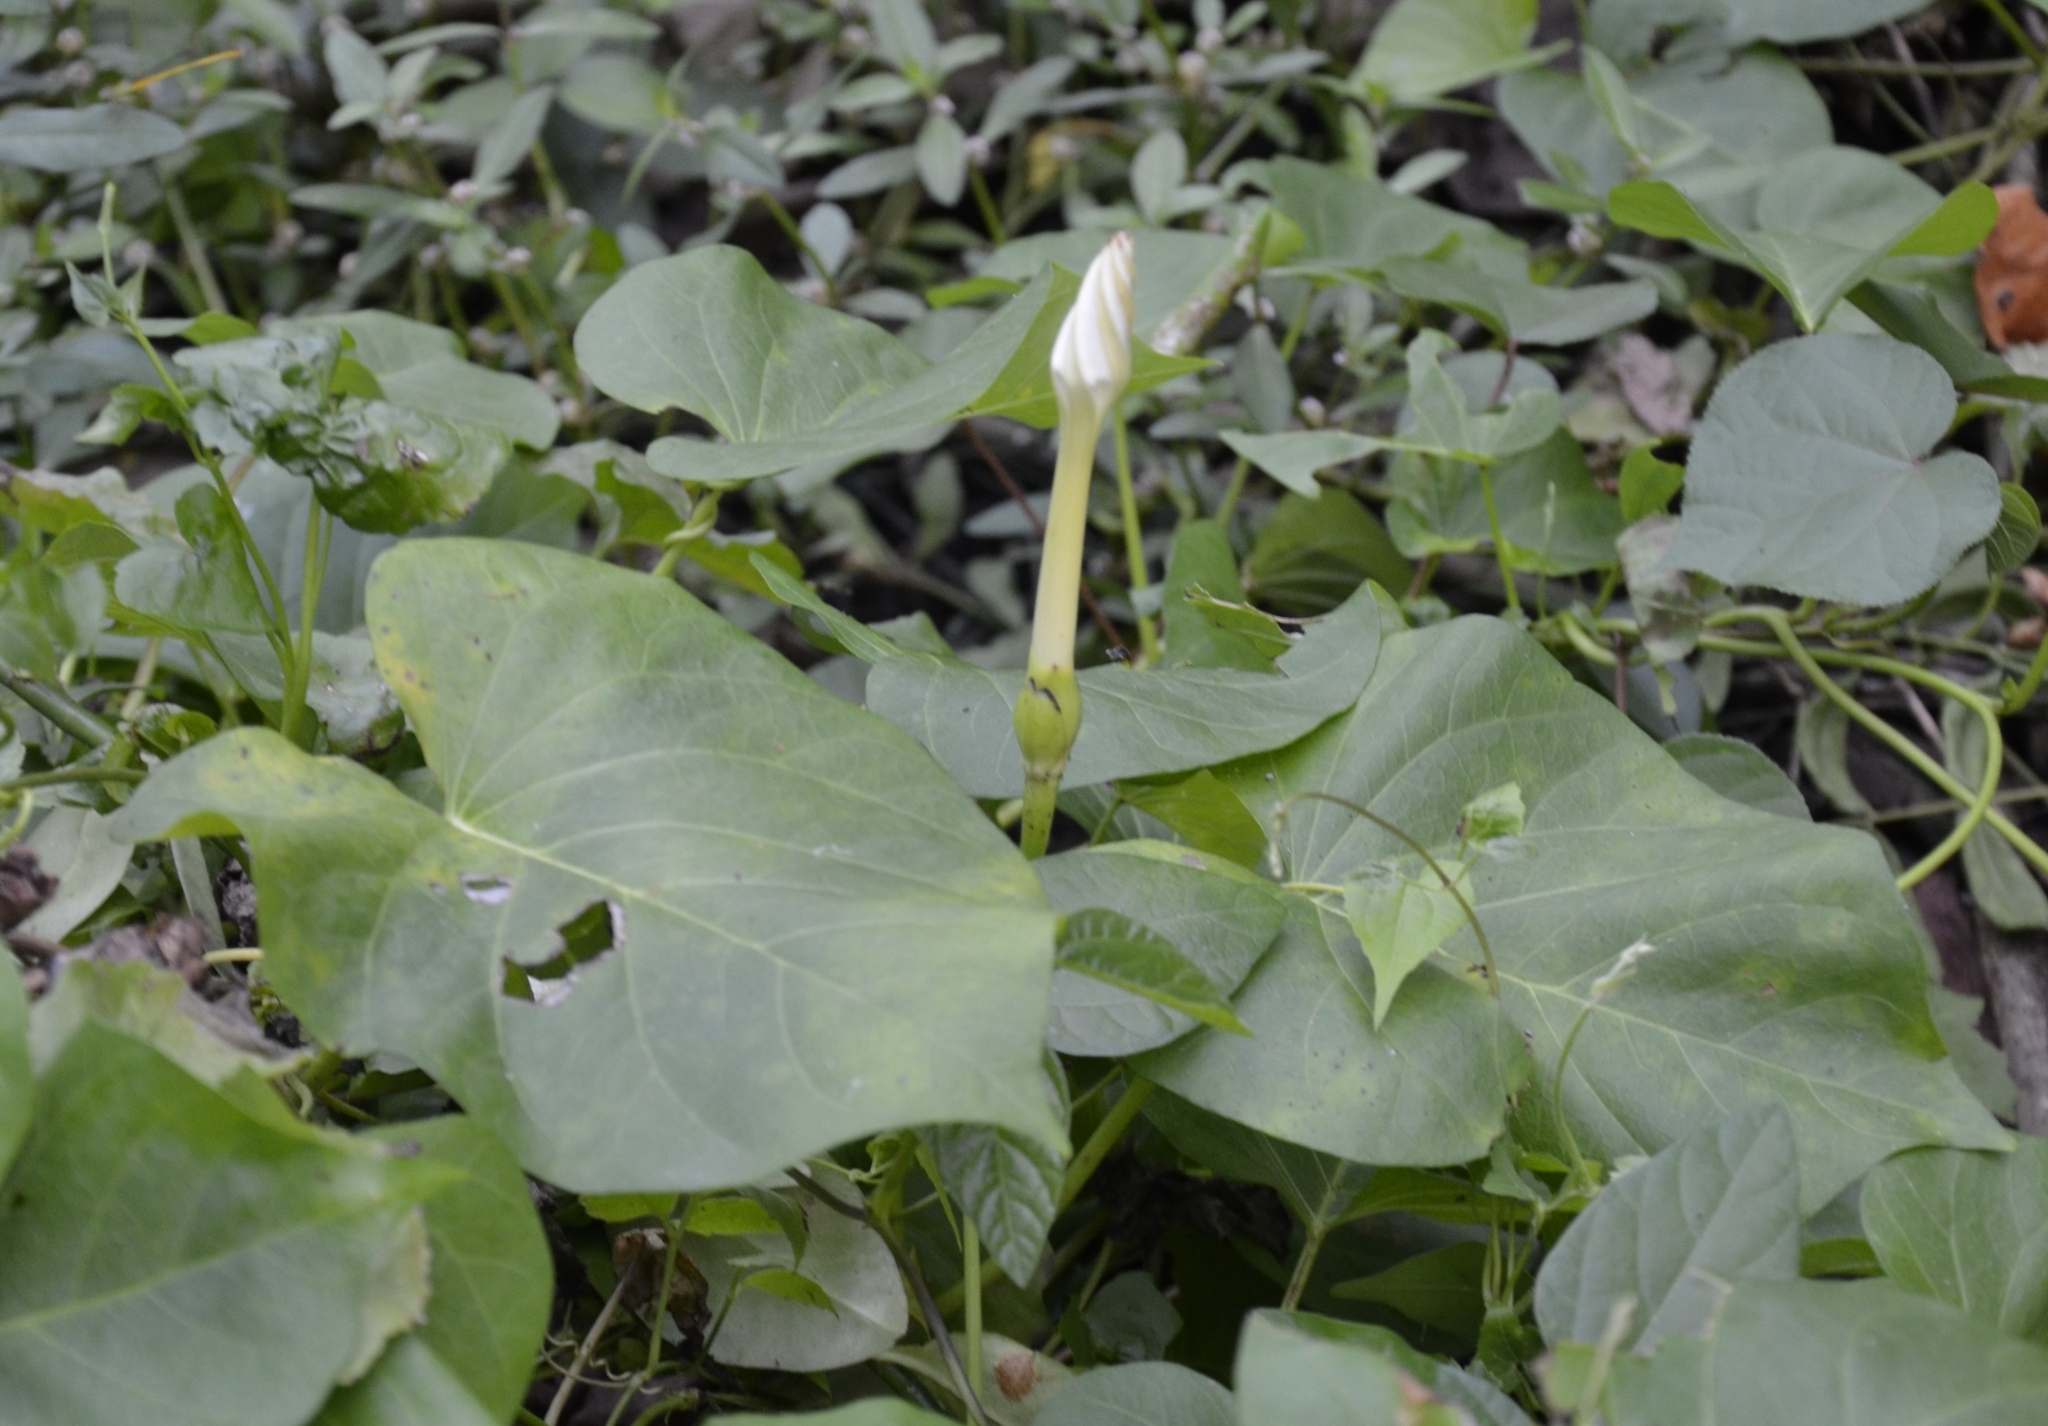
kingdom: Plantae
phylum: Tracheophyta
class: Magnoliopsida
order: Solanales
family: Convolvulaceae
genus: Ipomoea
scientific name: Ipomoea alba
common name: Moonflower
